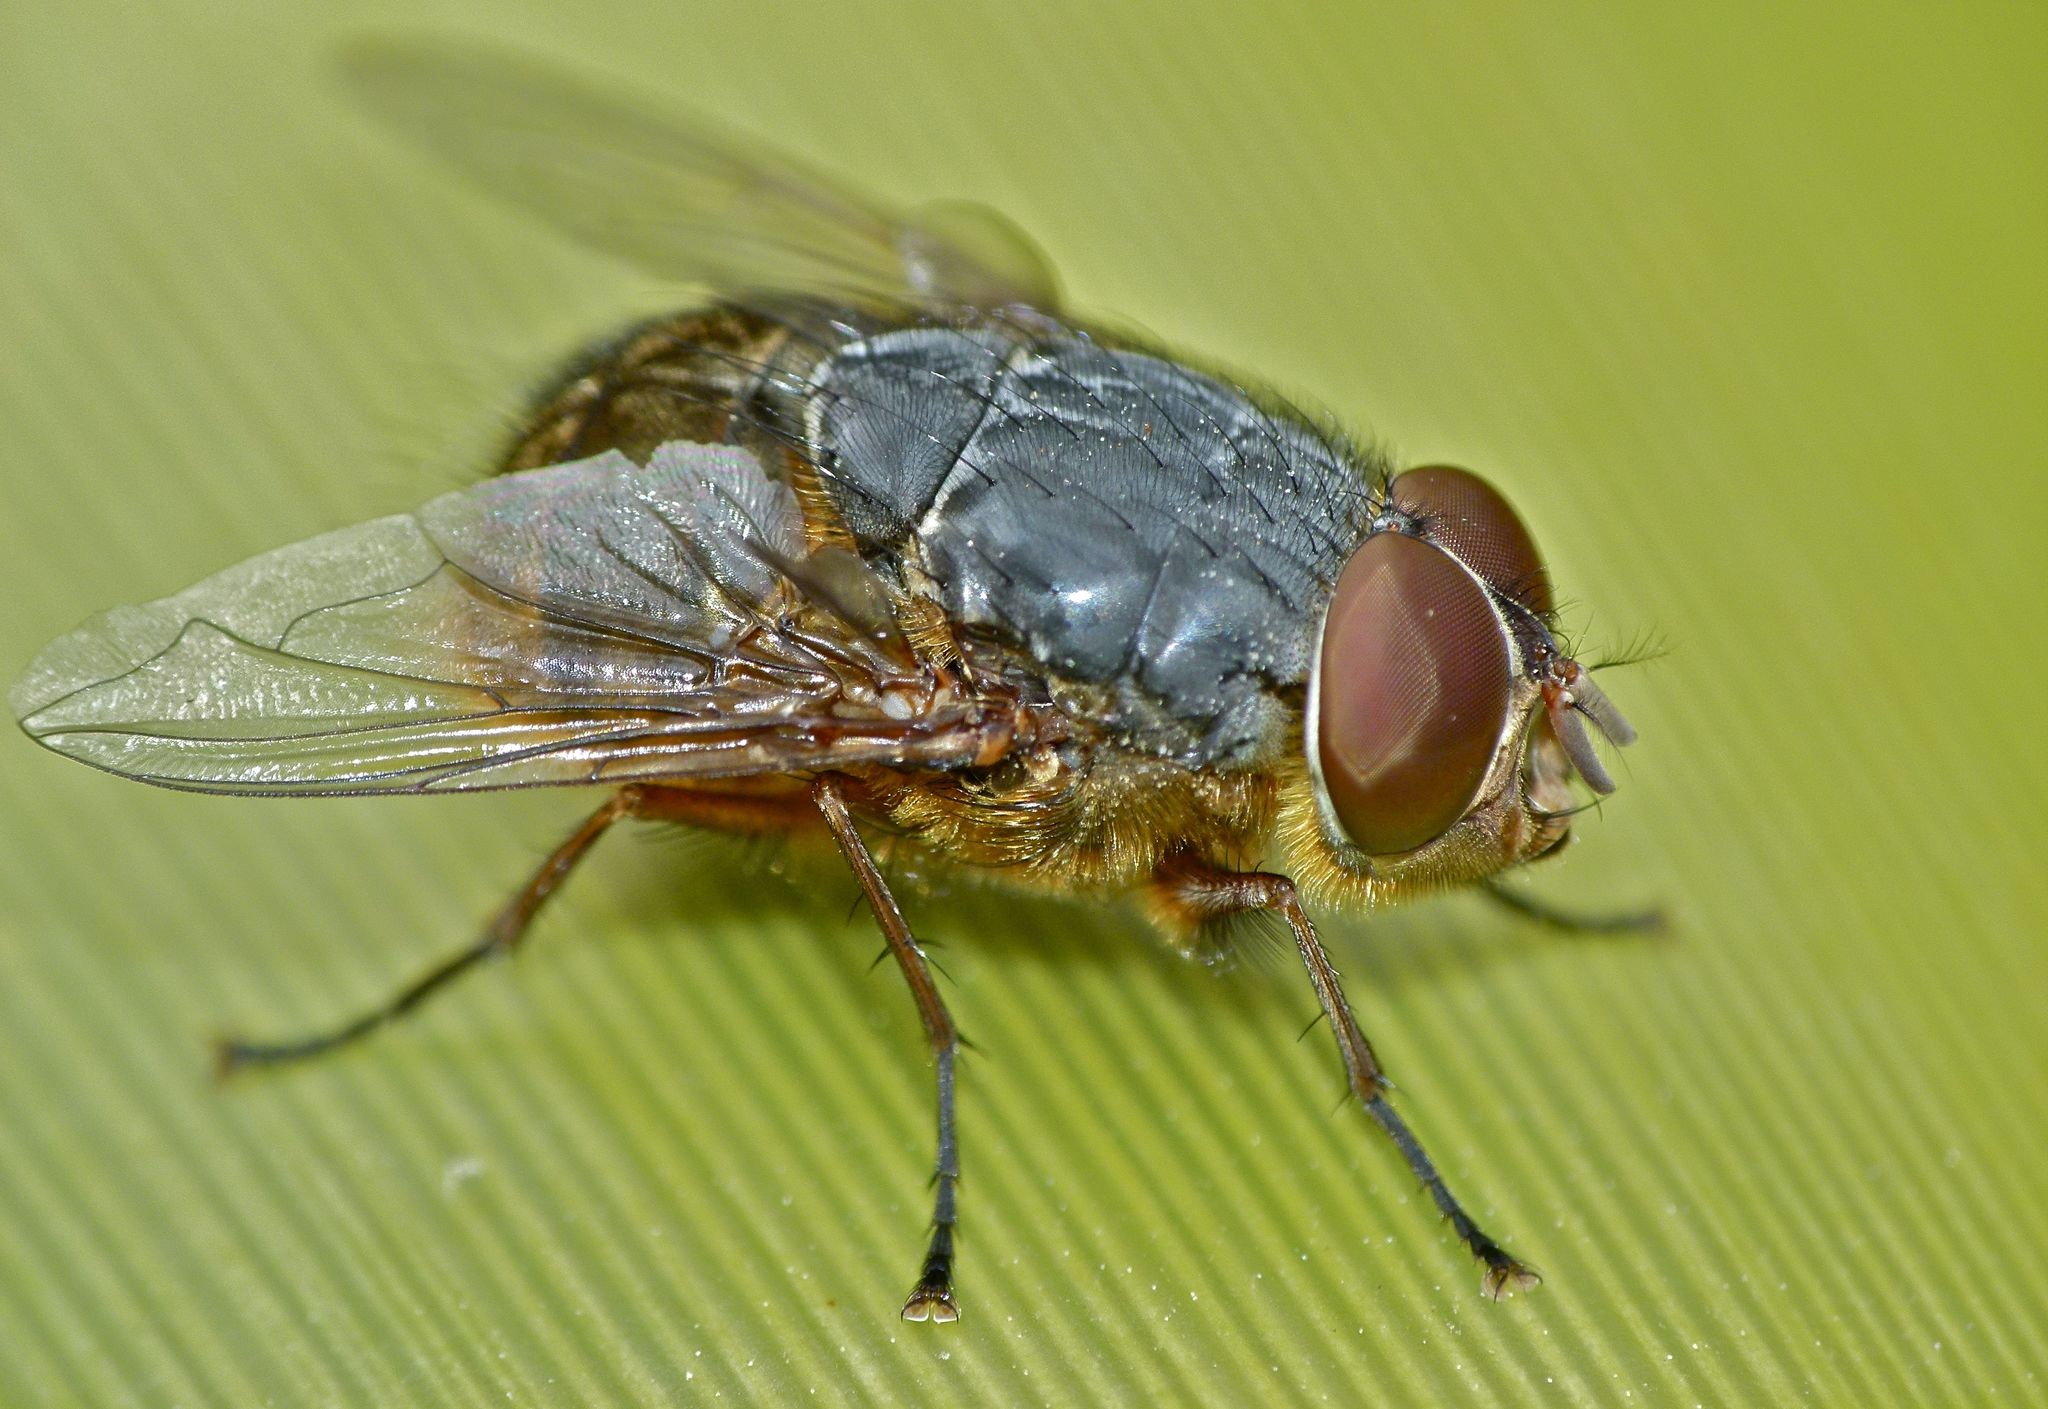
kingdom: Animalia
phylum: Arthropoda
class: Insecta
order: Diptera
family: Calliphoridae
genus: Calliphora
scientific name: Calliphora stygia
